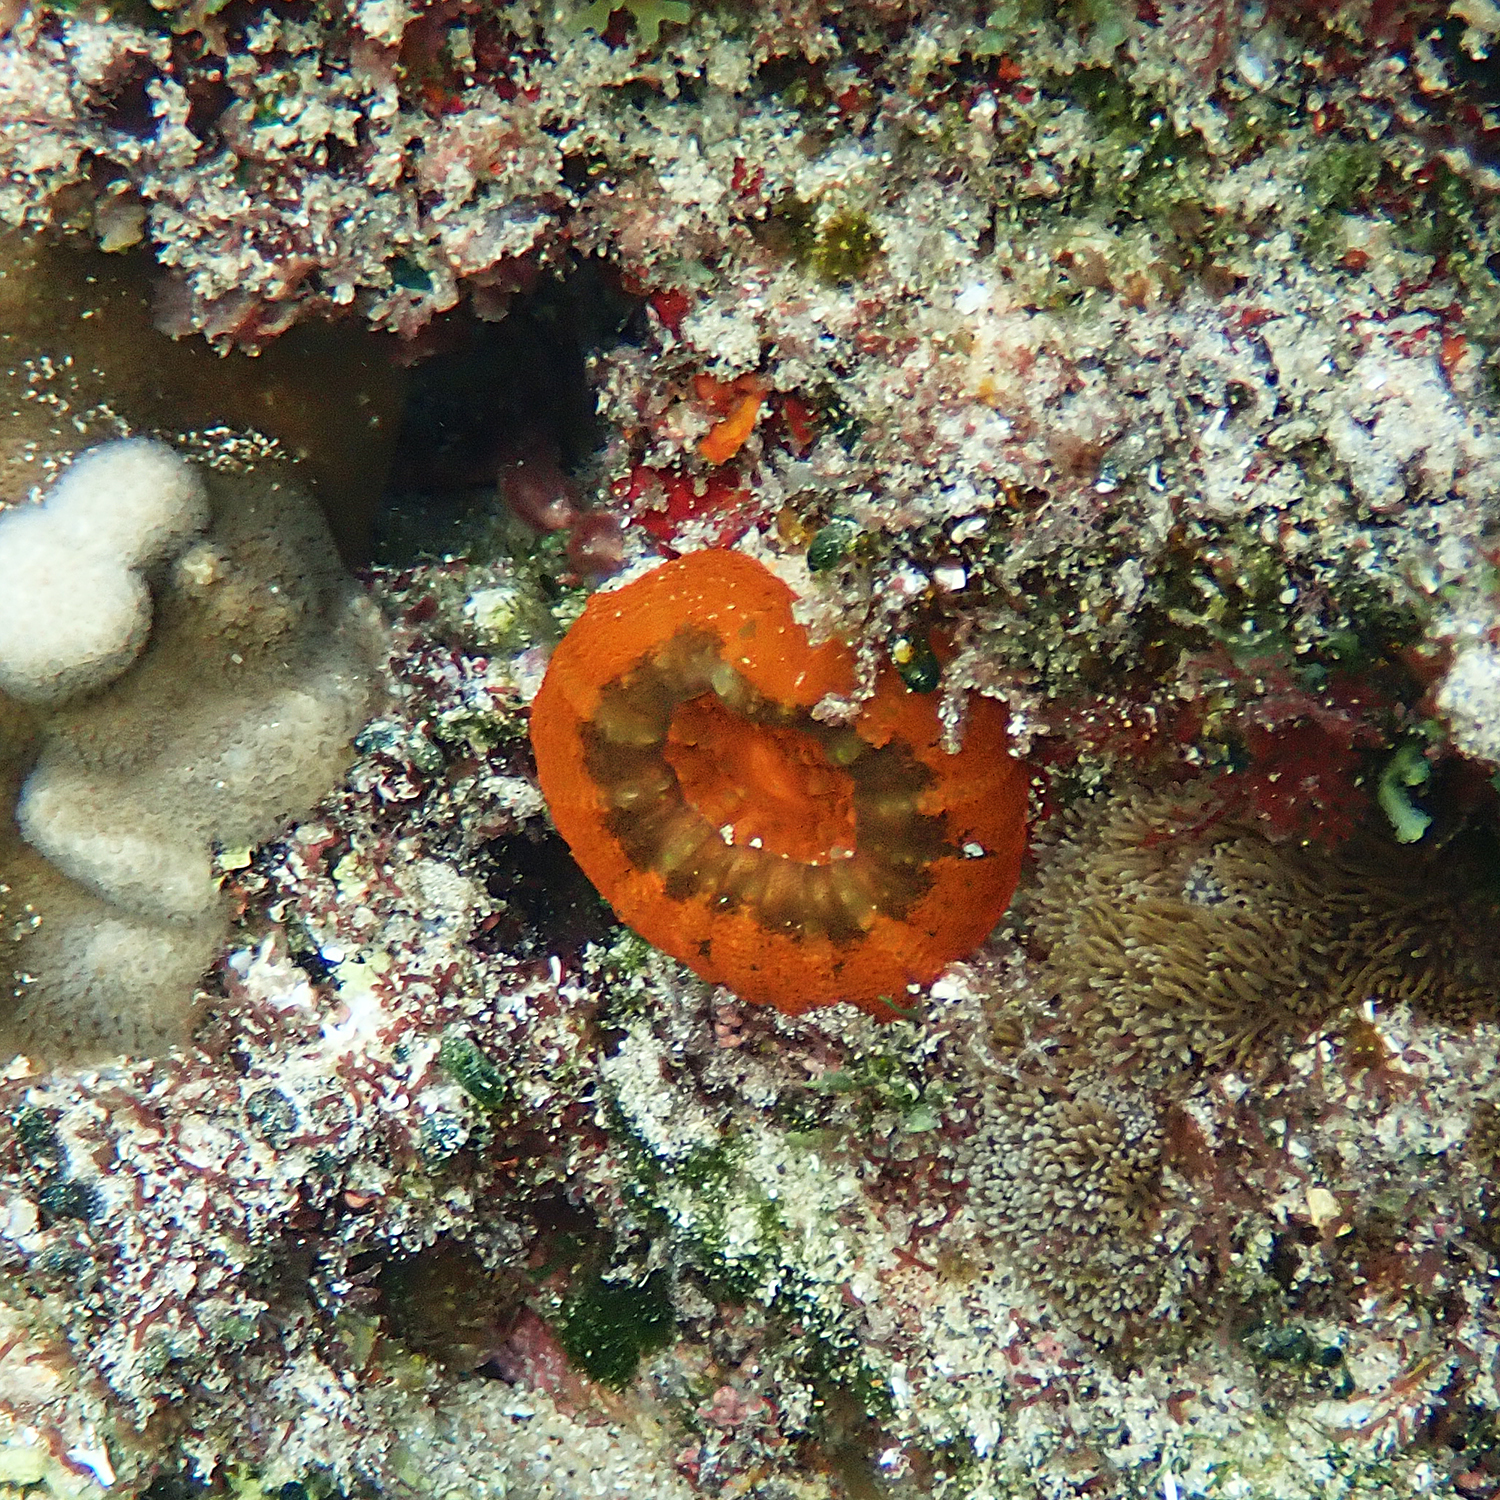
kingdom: Animalia
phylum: Cnidaria
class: Anthozoa
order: Scleractinia
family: Lobophylliidae
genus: Homophyllia
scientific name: Homophyllia australis
